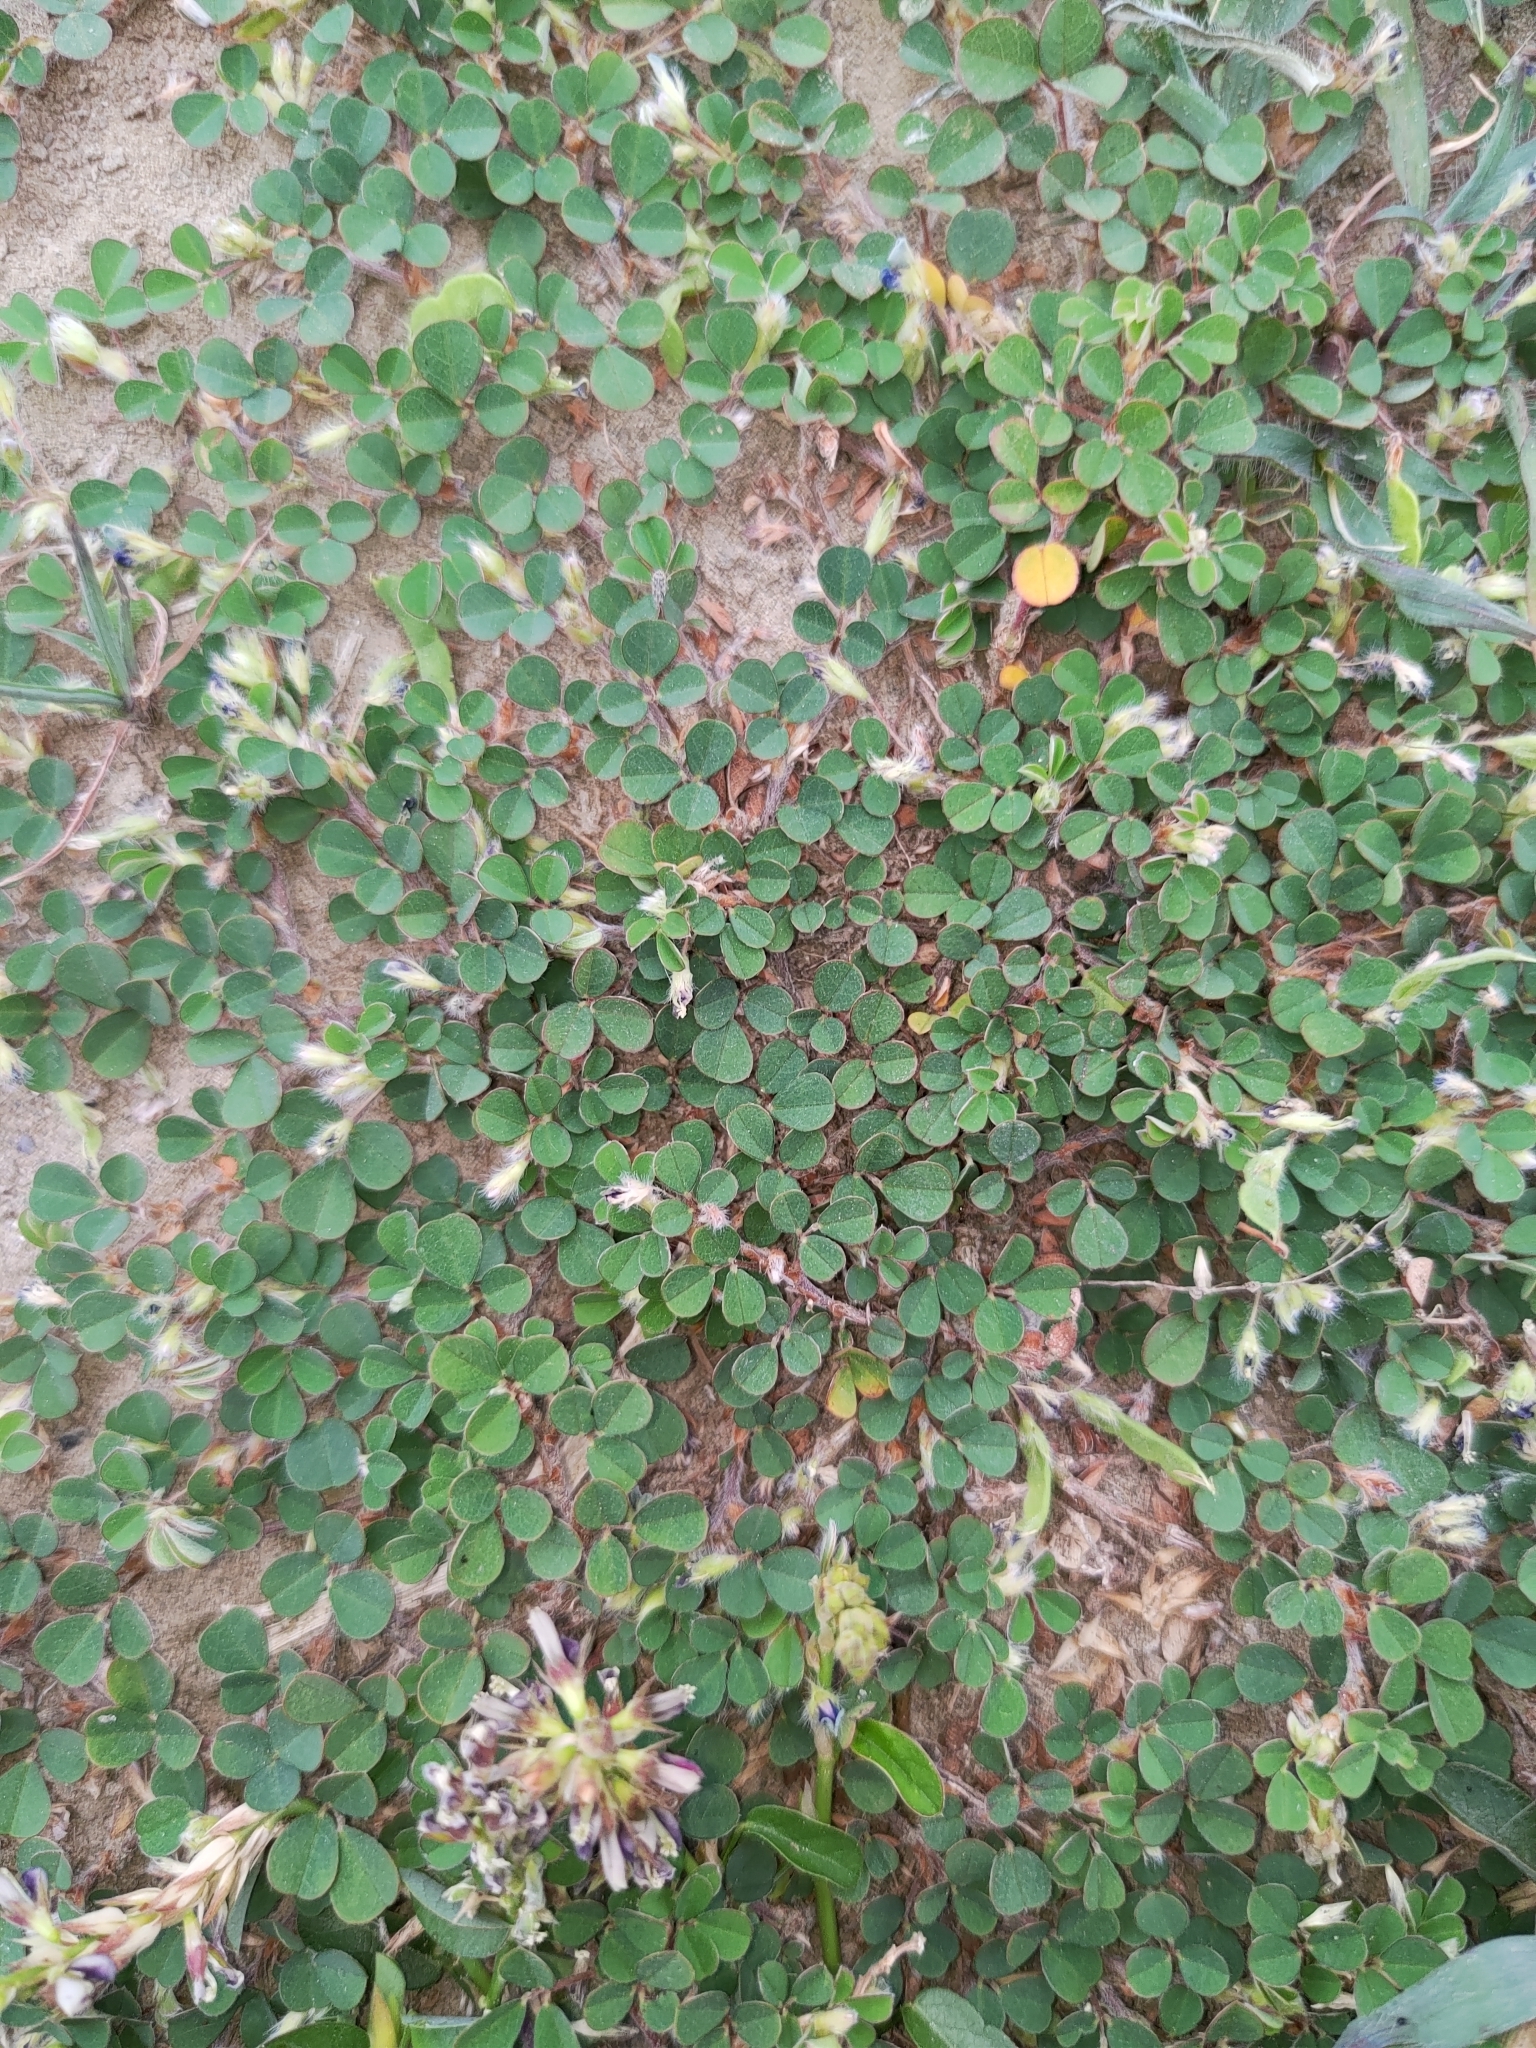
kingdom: Plantae
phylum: Tracheophyta
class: Magnoliopsida
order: Fabales
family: Fabaceae
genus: Grona
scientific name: Grona triflora
